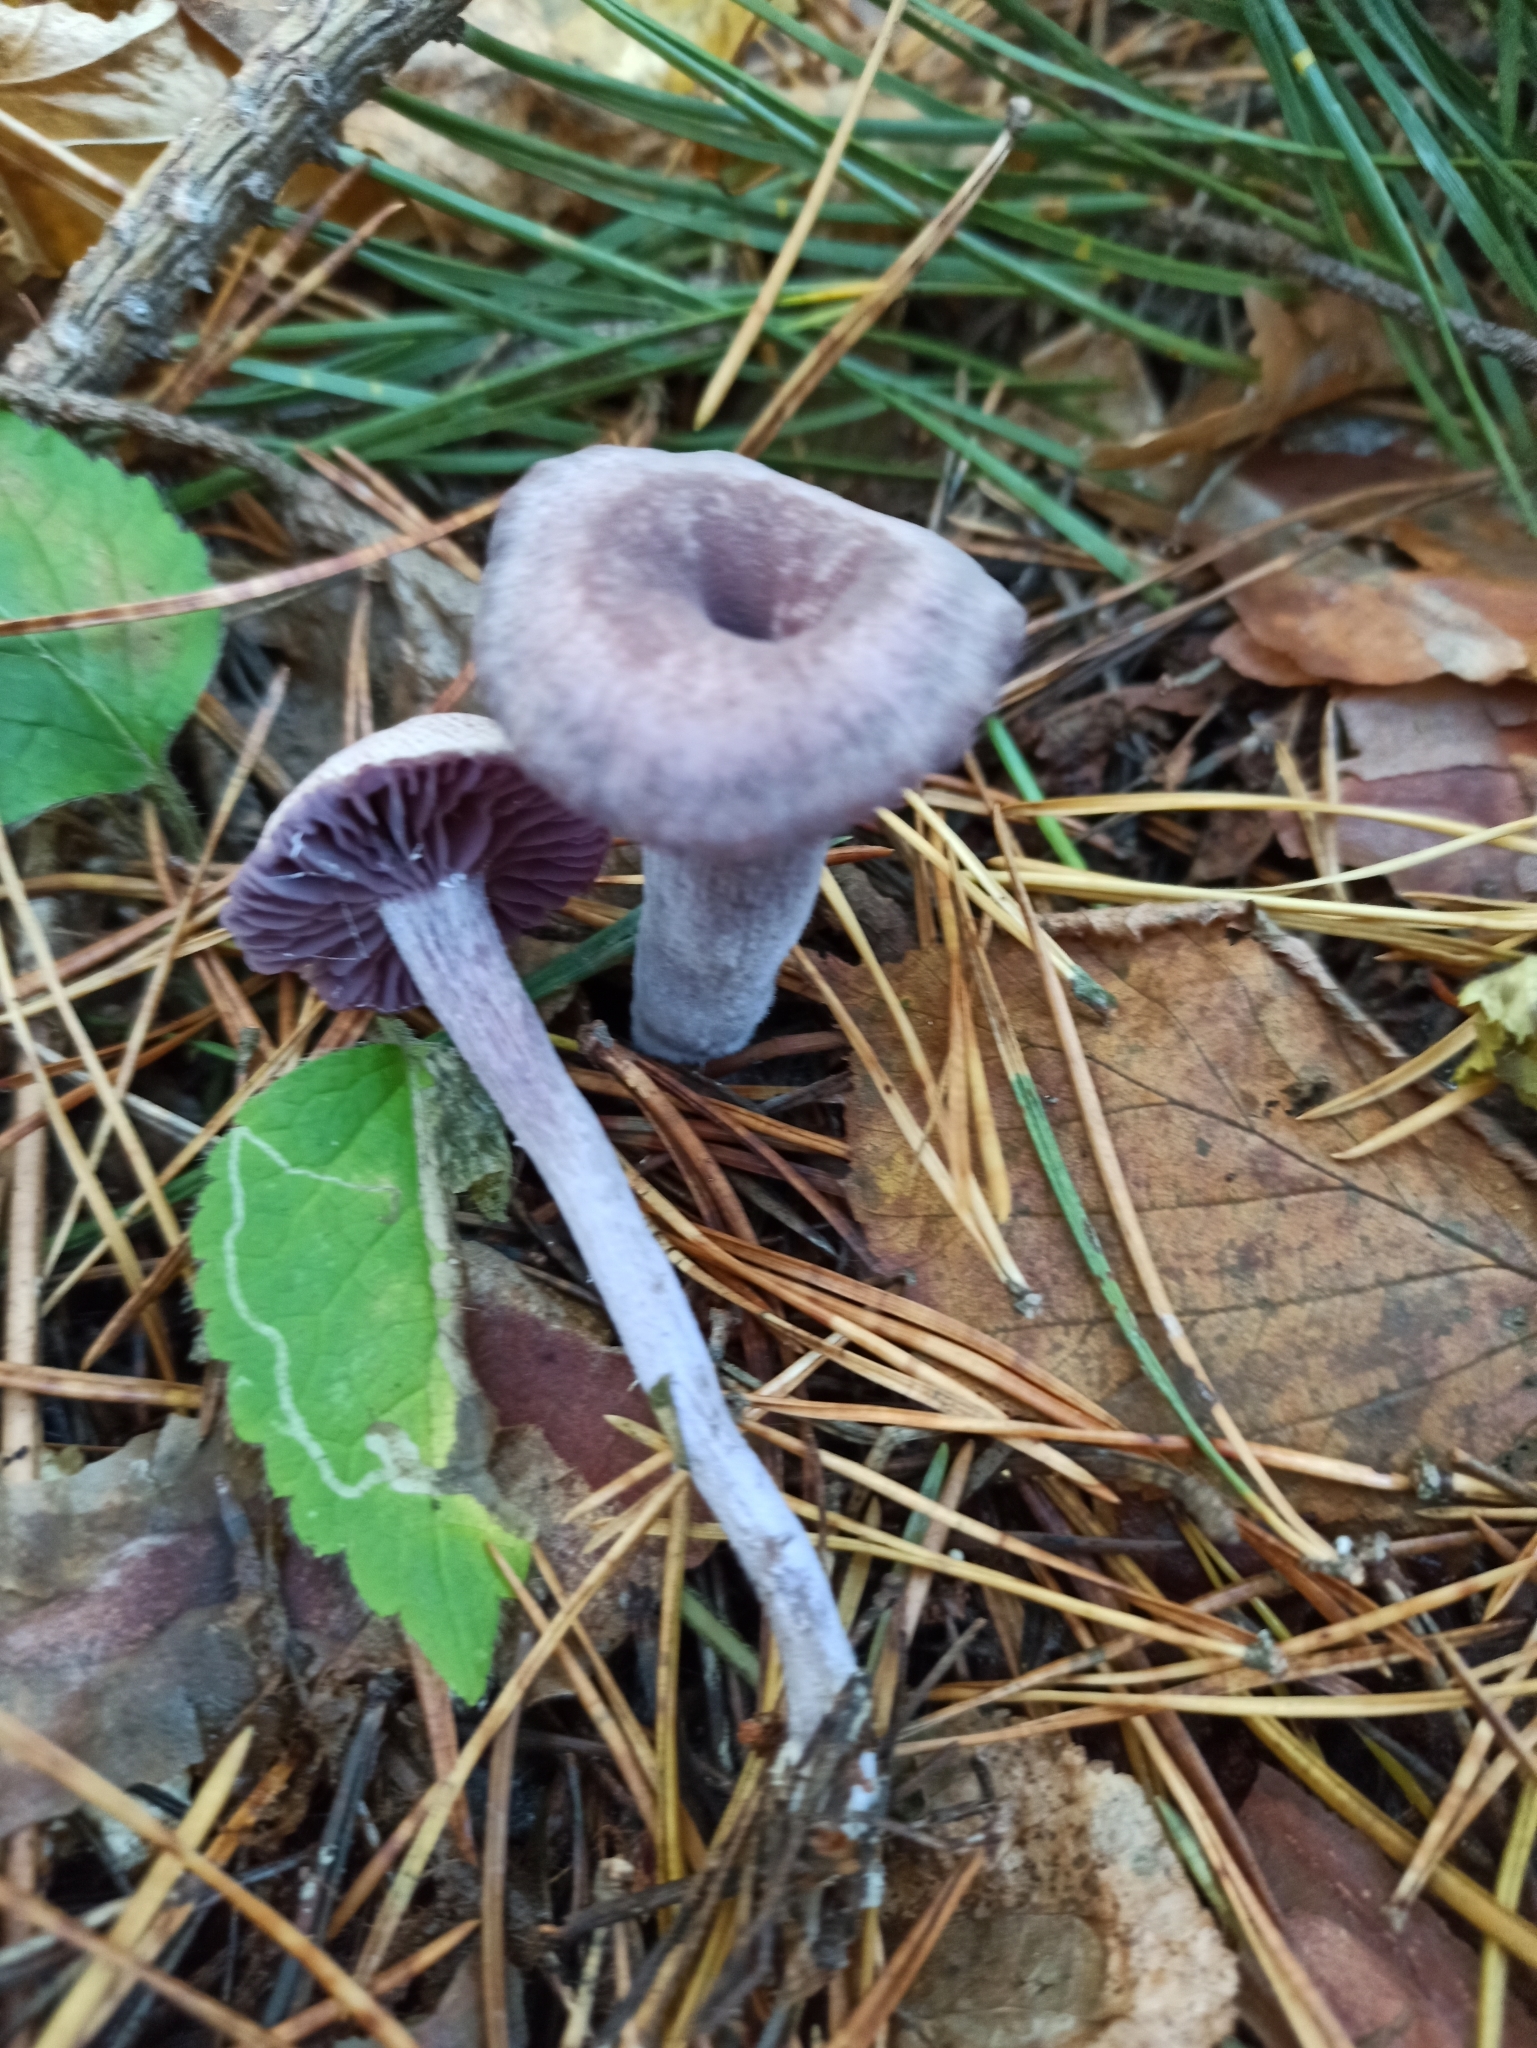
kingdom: Fungi
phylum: Basidiomycota
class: Agaricomycetes
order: Agaricales
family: Hydnangiaceae
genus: Laccaria
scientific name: Laccaria amethystina
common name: Amethyst deceiver
